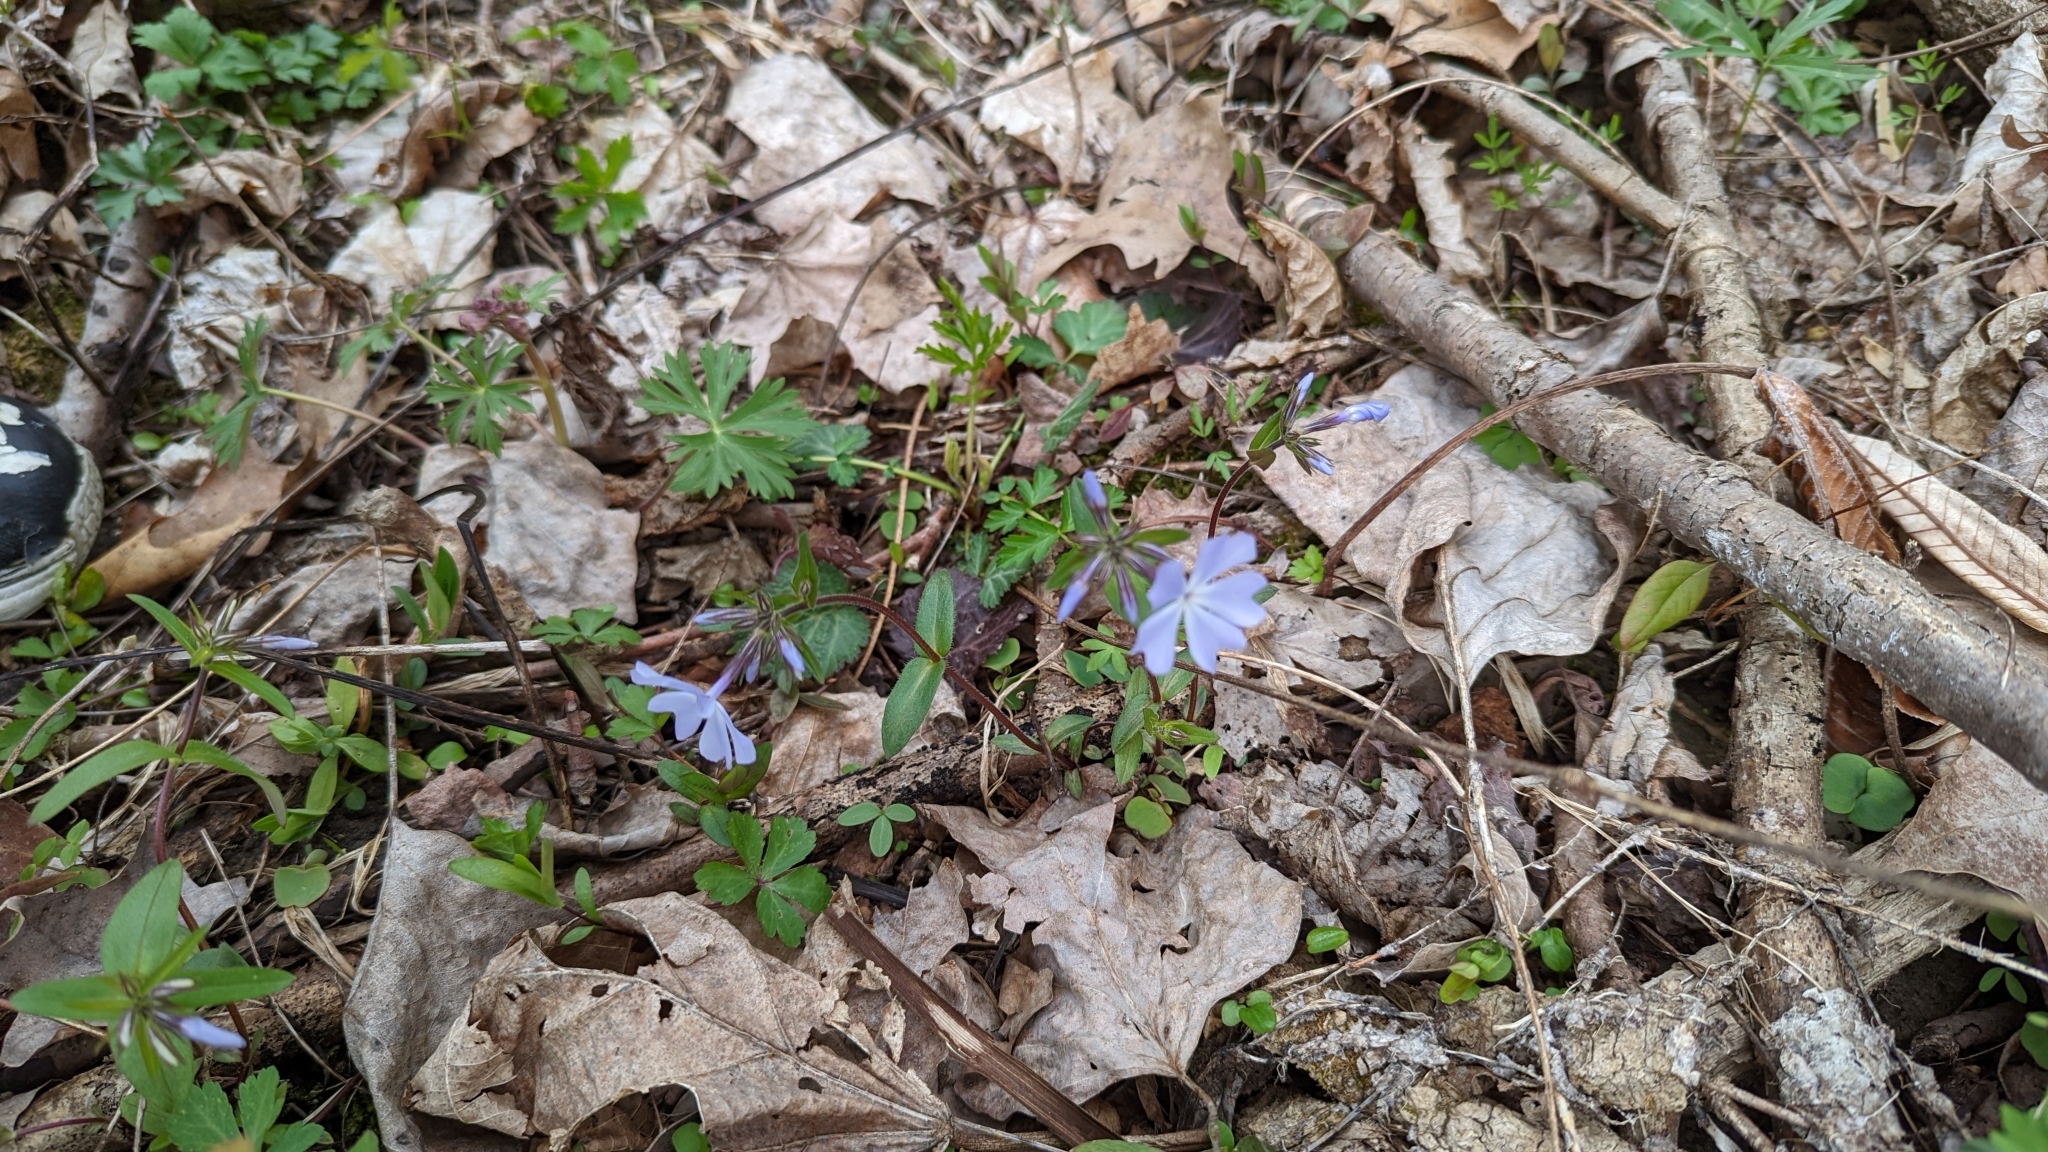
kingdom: Plantae
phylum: Tracheophyta
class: Magnoliopsida
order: Ericales
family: Polemoniaceae
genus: Phlox
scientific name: Phlox divaricata
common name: Blue phlox
